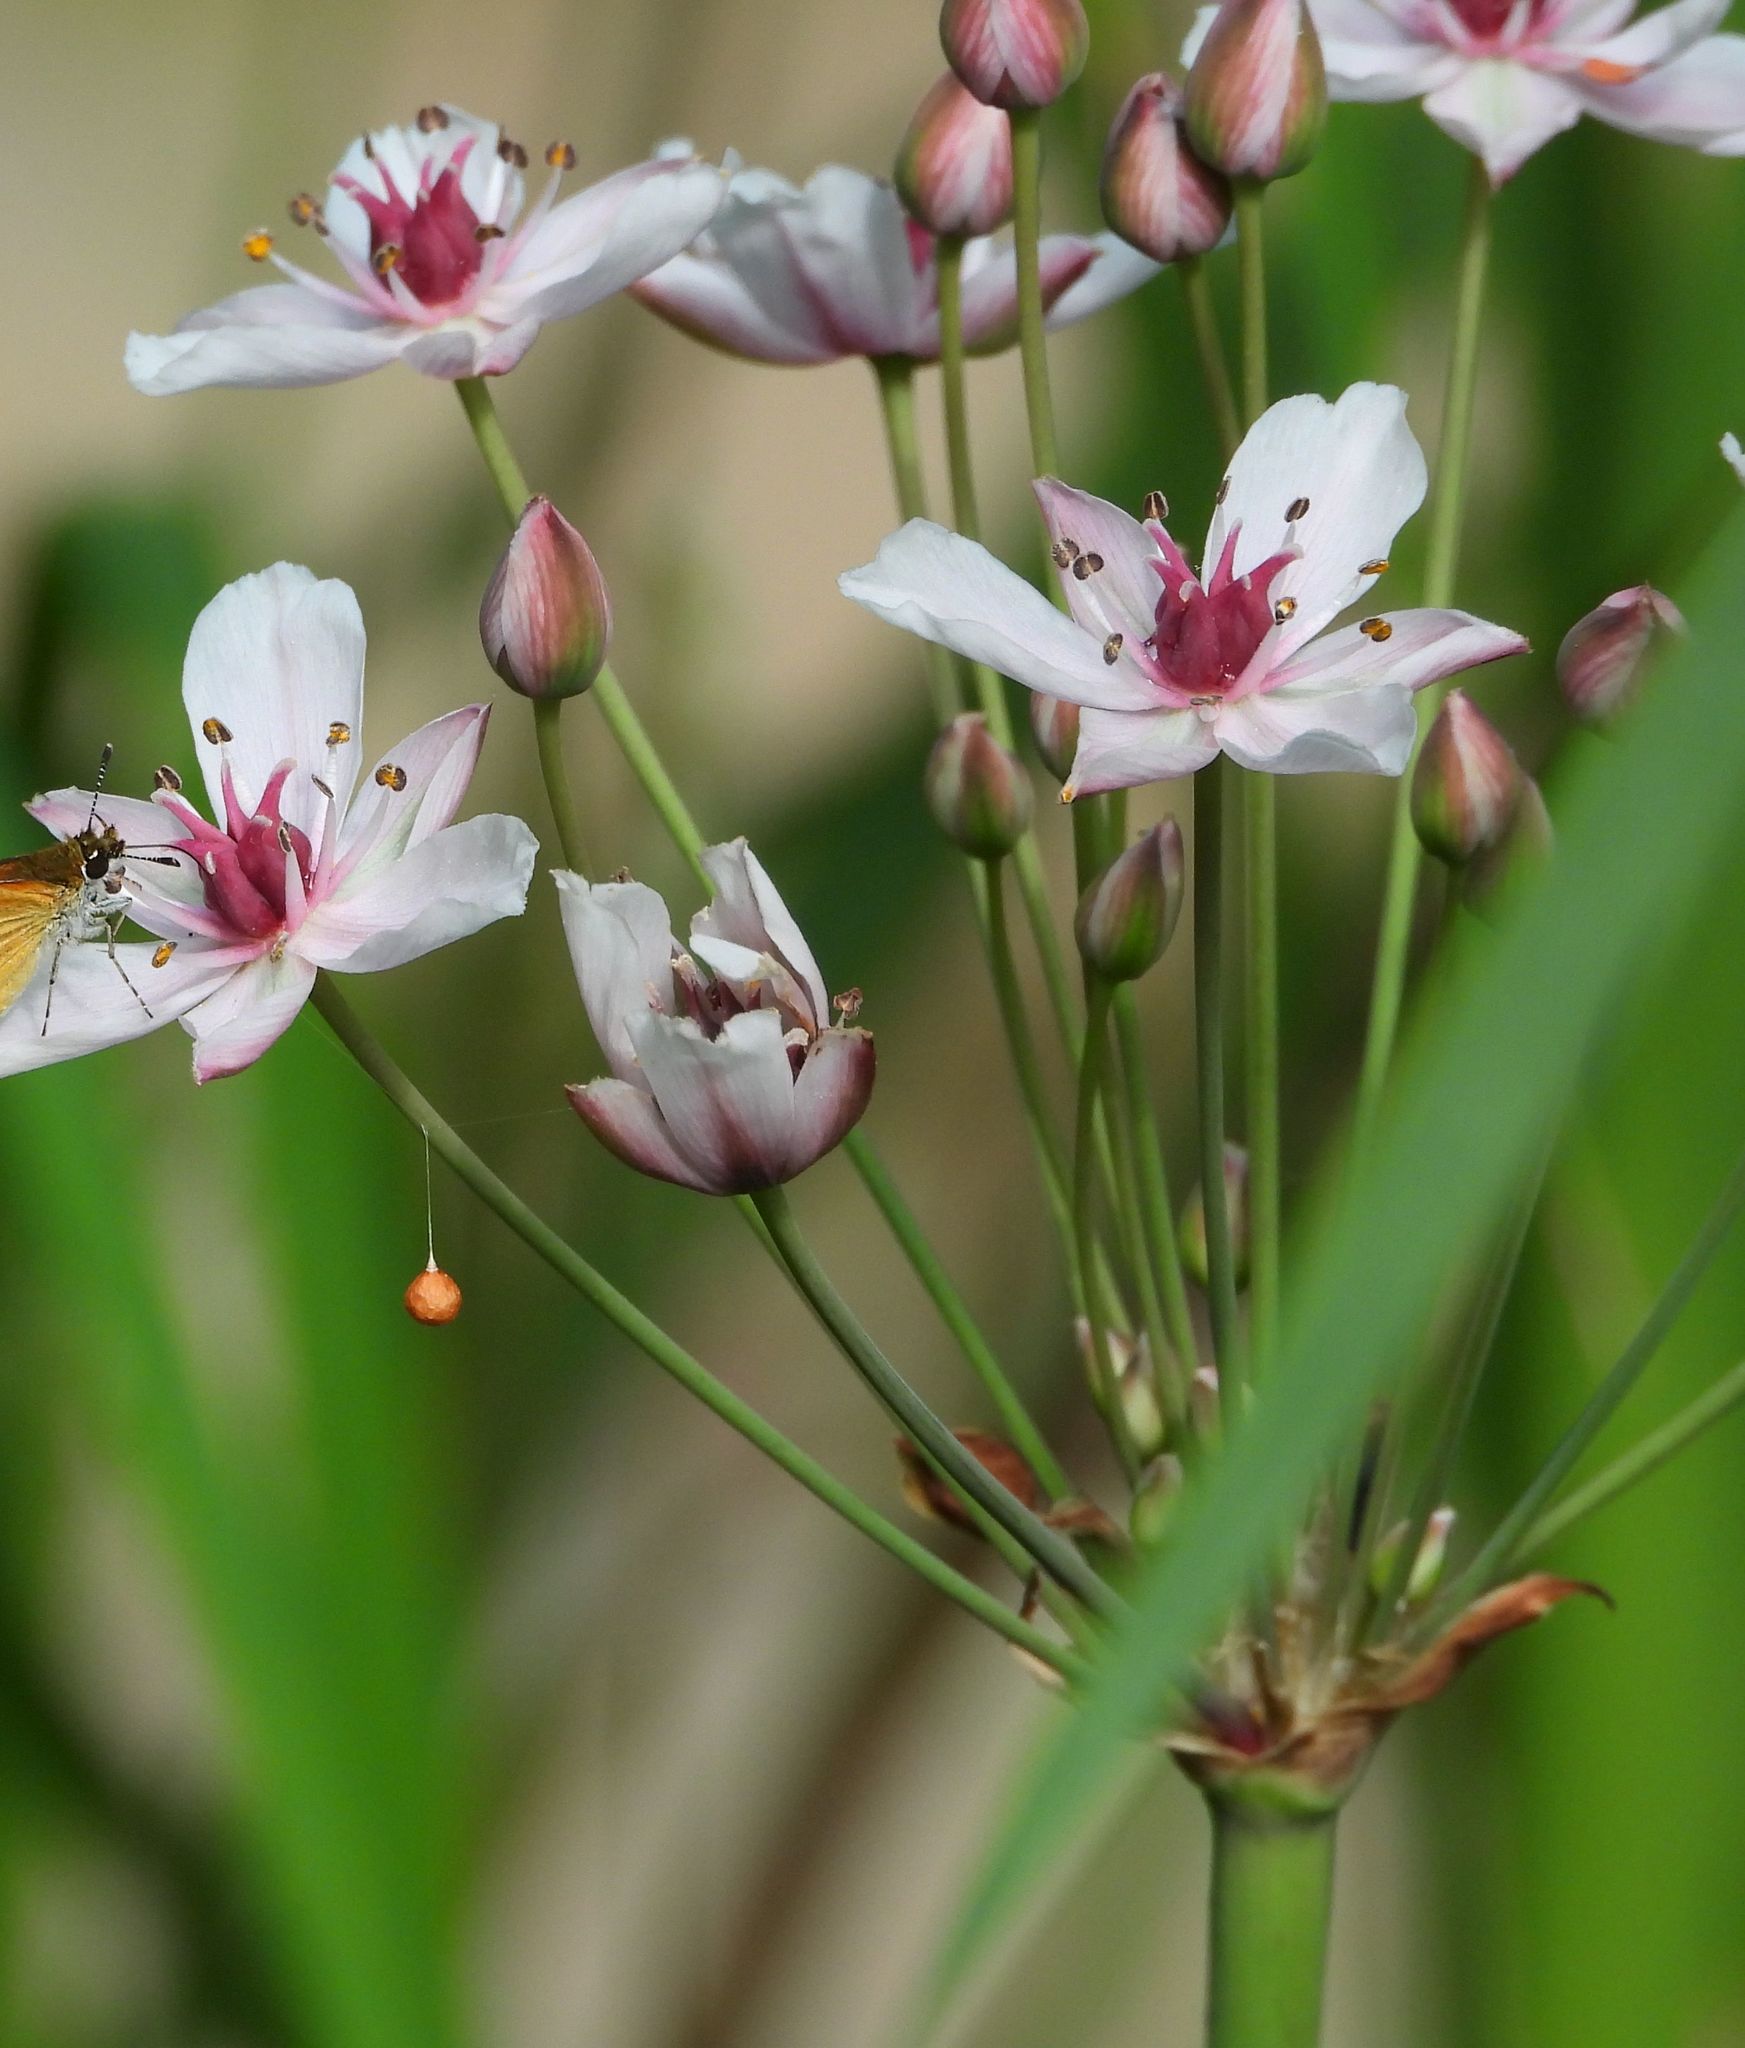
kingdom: Plantae
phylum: Tracheophyta
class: Liliopsida
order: Alismatales
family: Butomaceae
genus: Butomus
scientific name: Butomus umbellatus
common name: Flowering-rush
